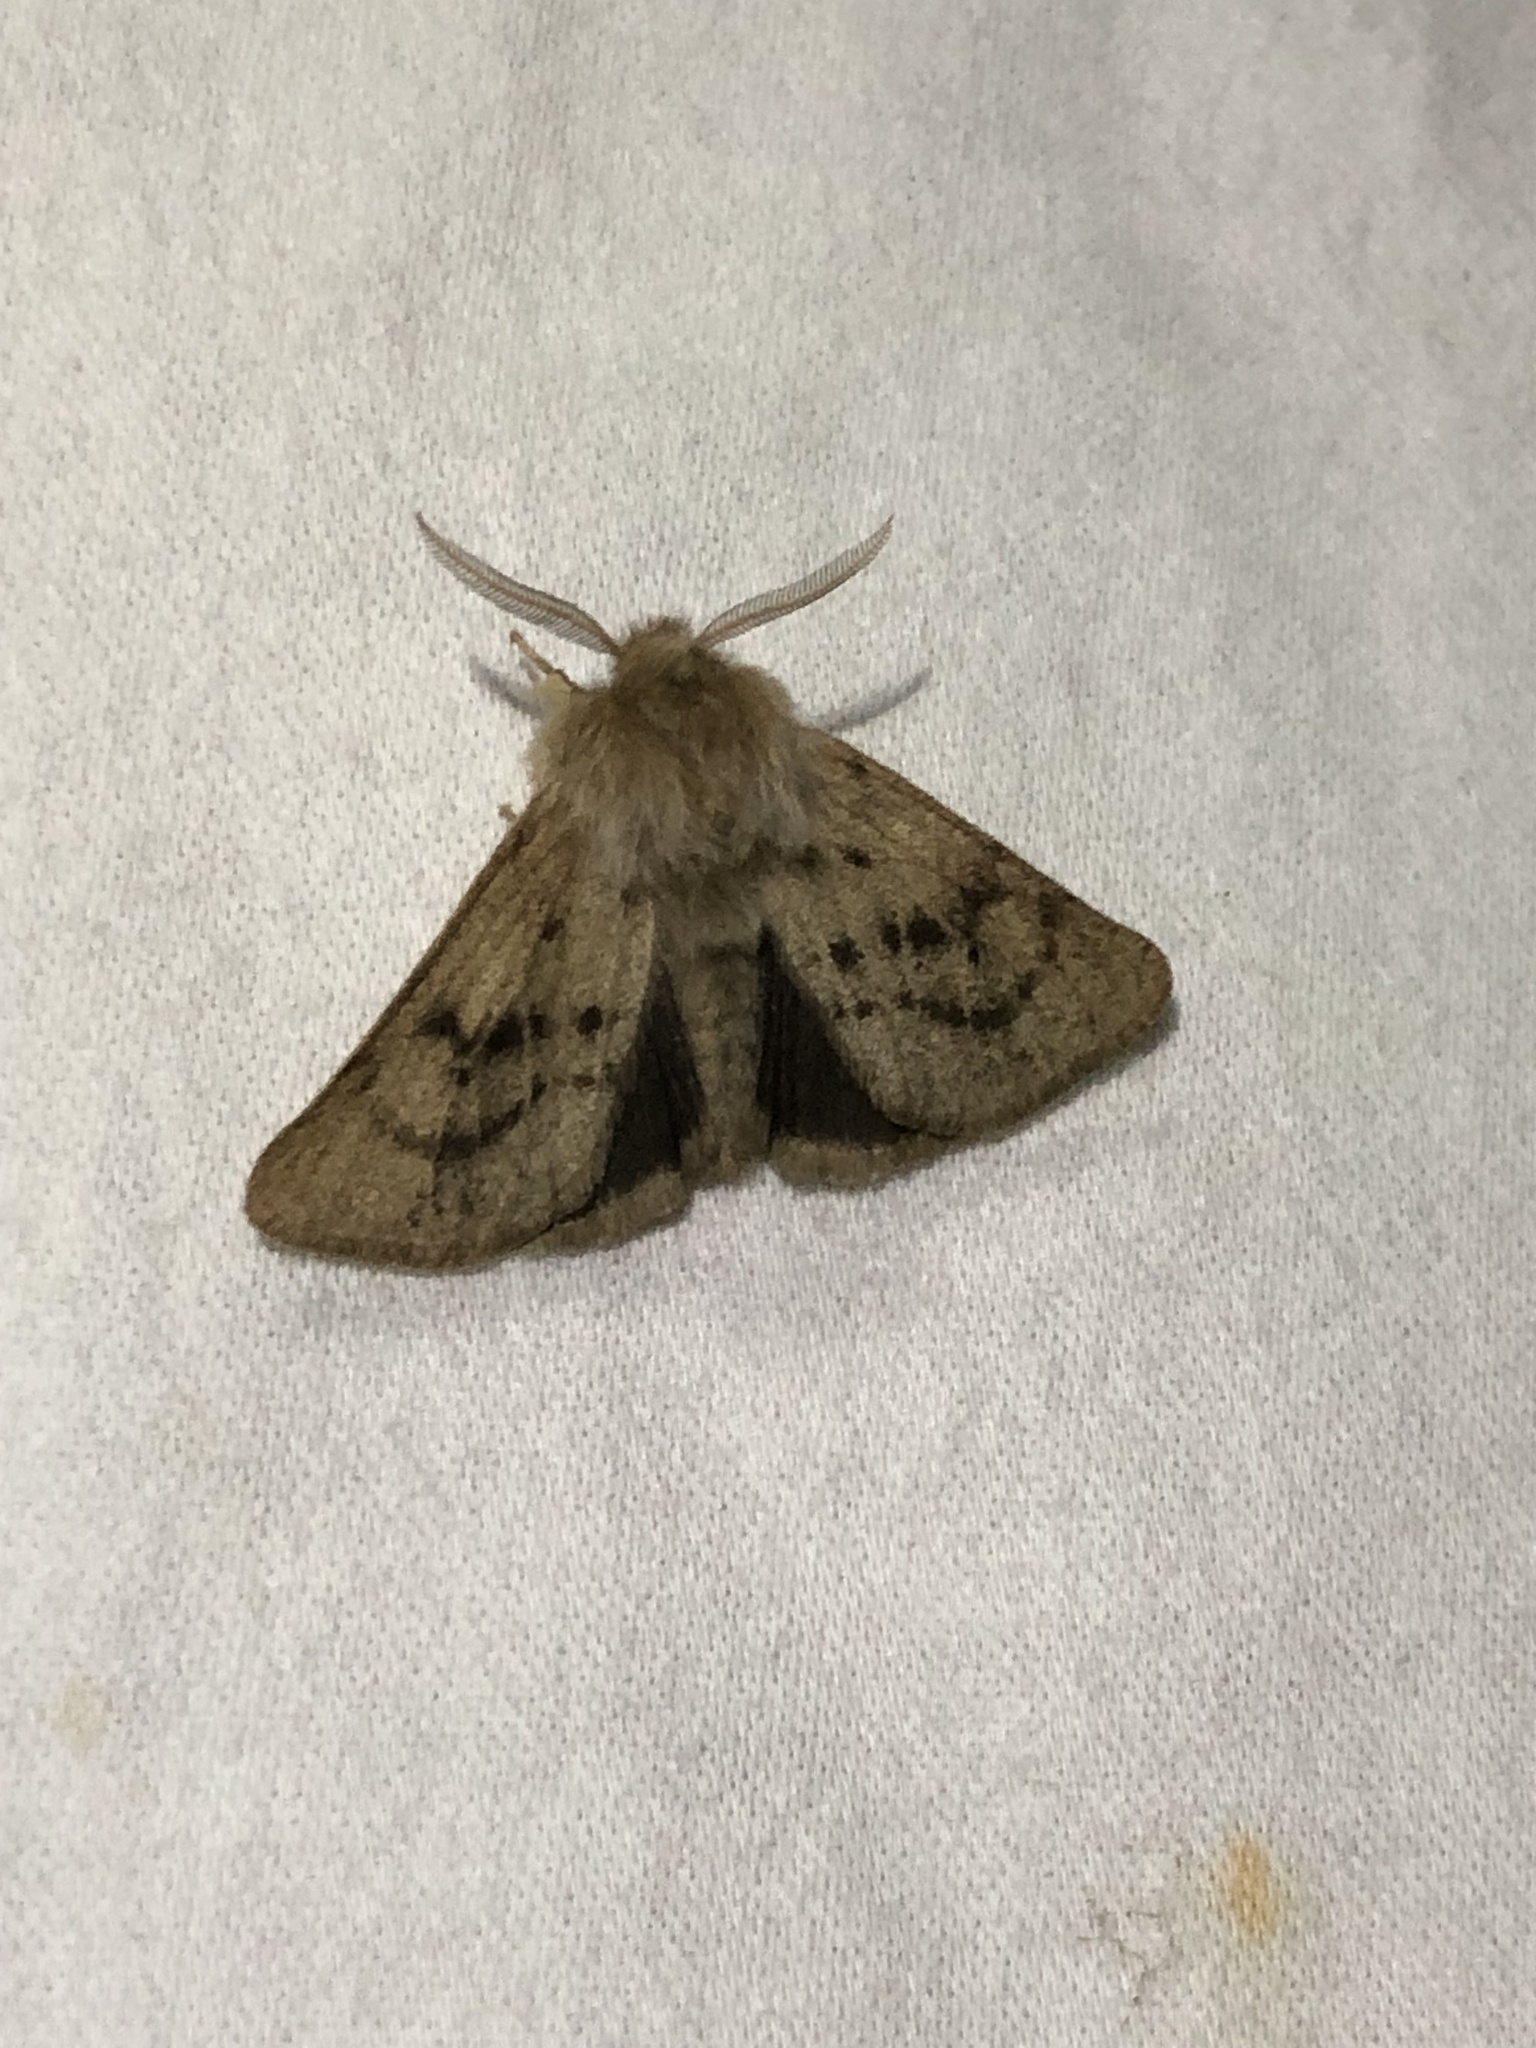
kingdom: Animalia
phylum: Arthropoda
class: Insecta
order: Lepidoptera
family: Erebidae
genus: Spilosoma
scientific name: Spilosoma vagans
